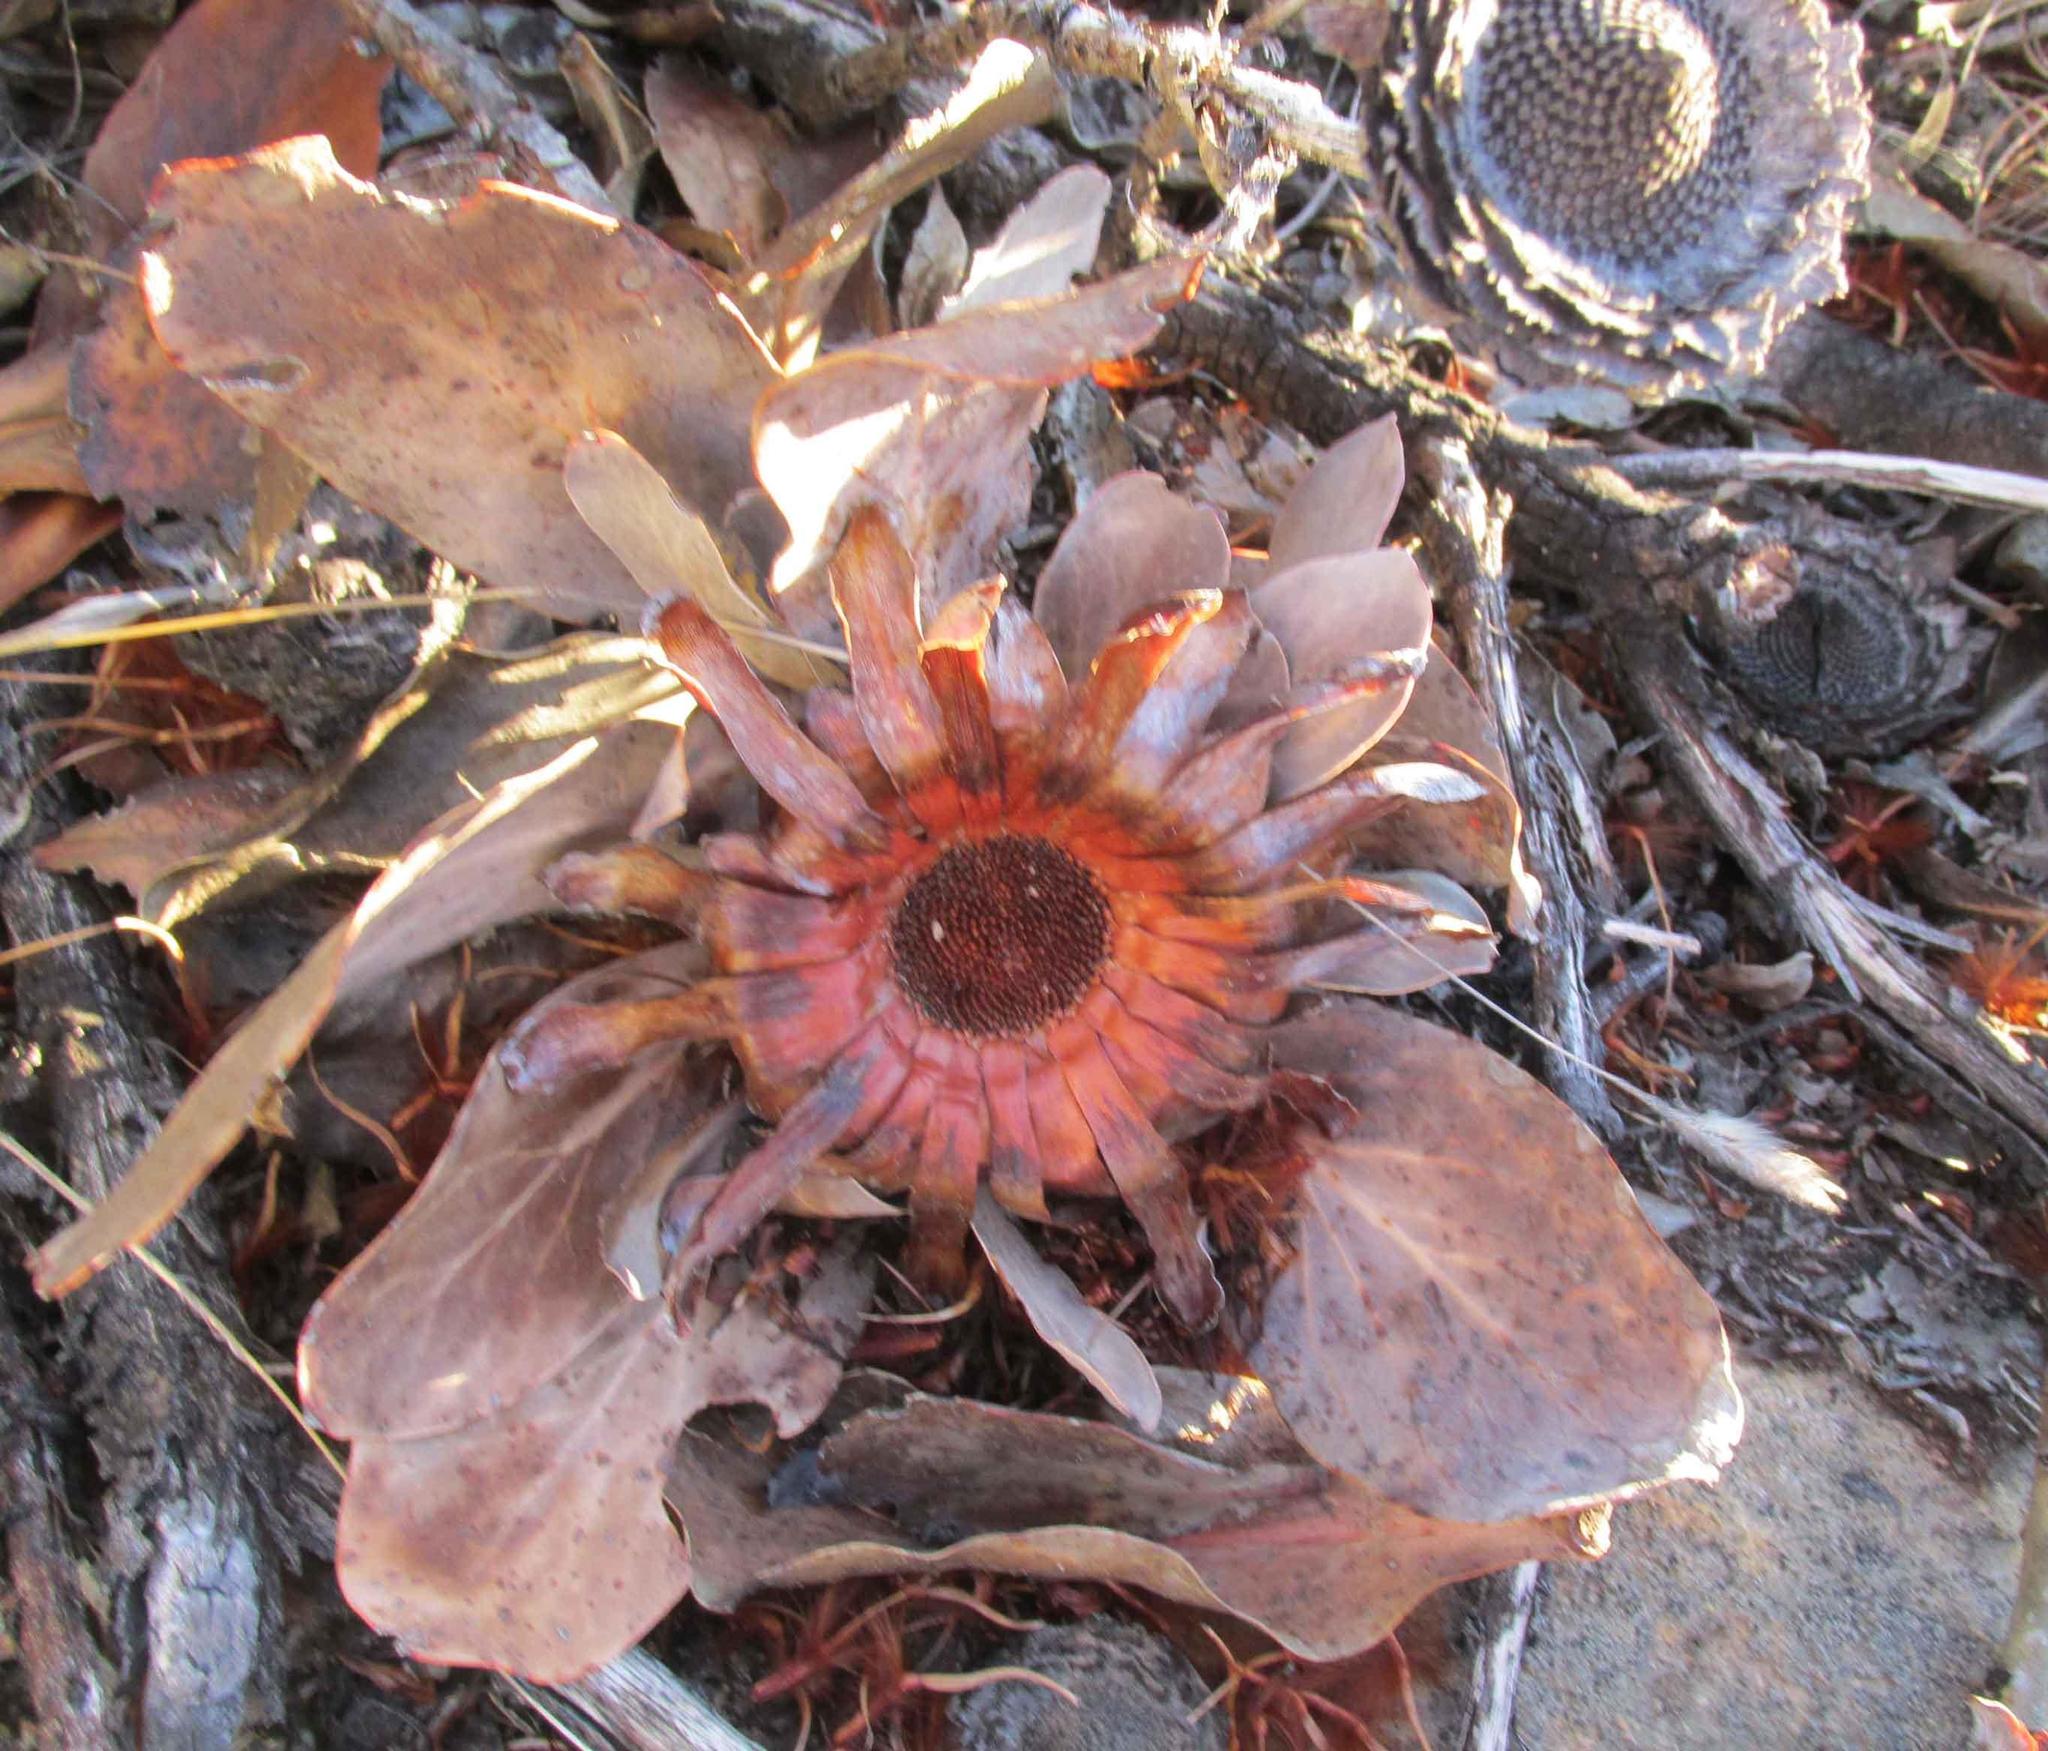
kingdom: Plantae
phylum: Tracheophyta
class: Magnoliopsida
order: Proteales
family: Proteaceae
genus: Protea
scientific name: Protea recondita
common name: Hidden sugarbush
